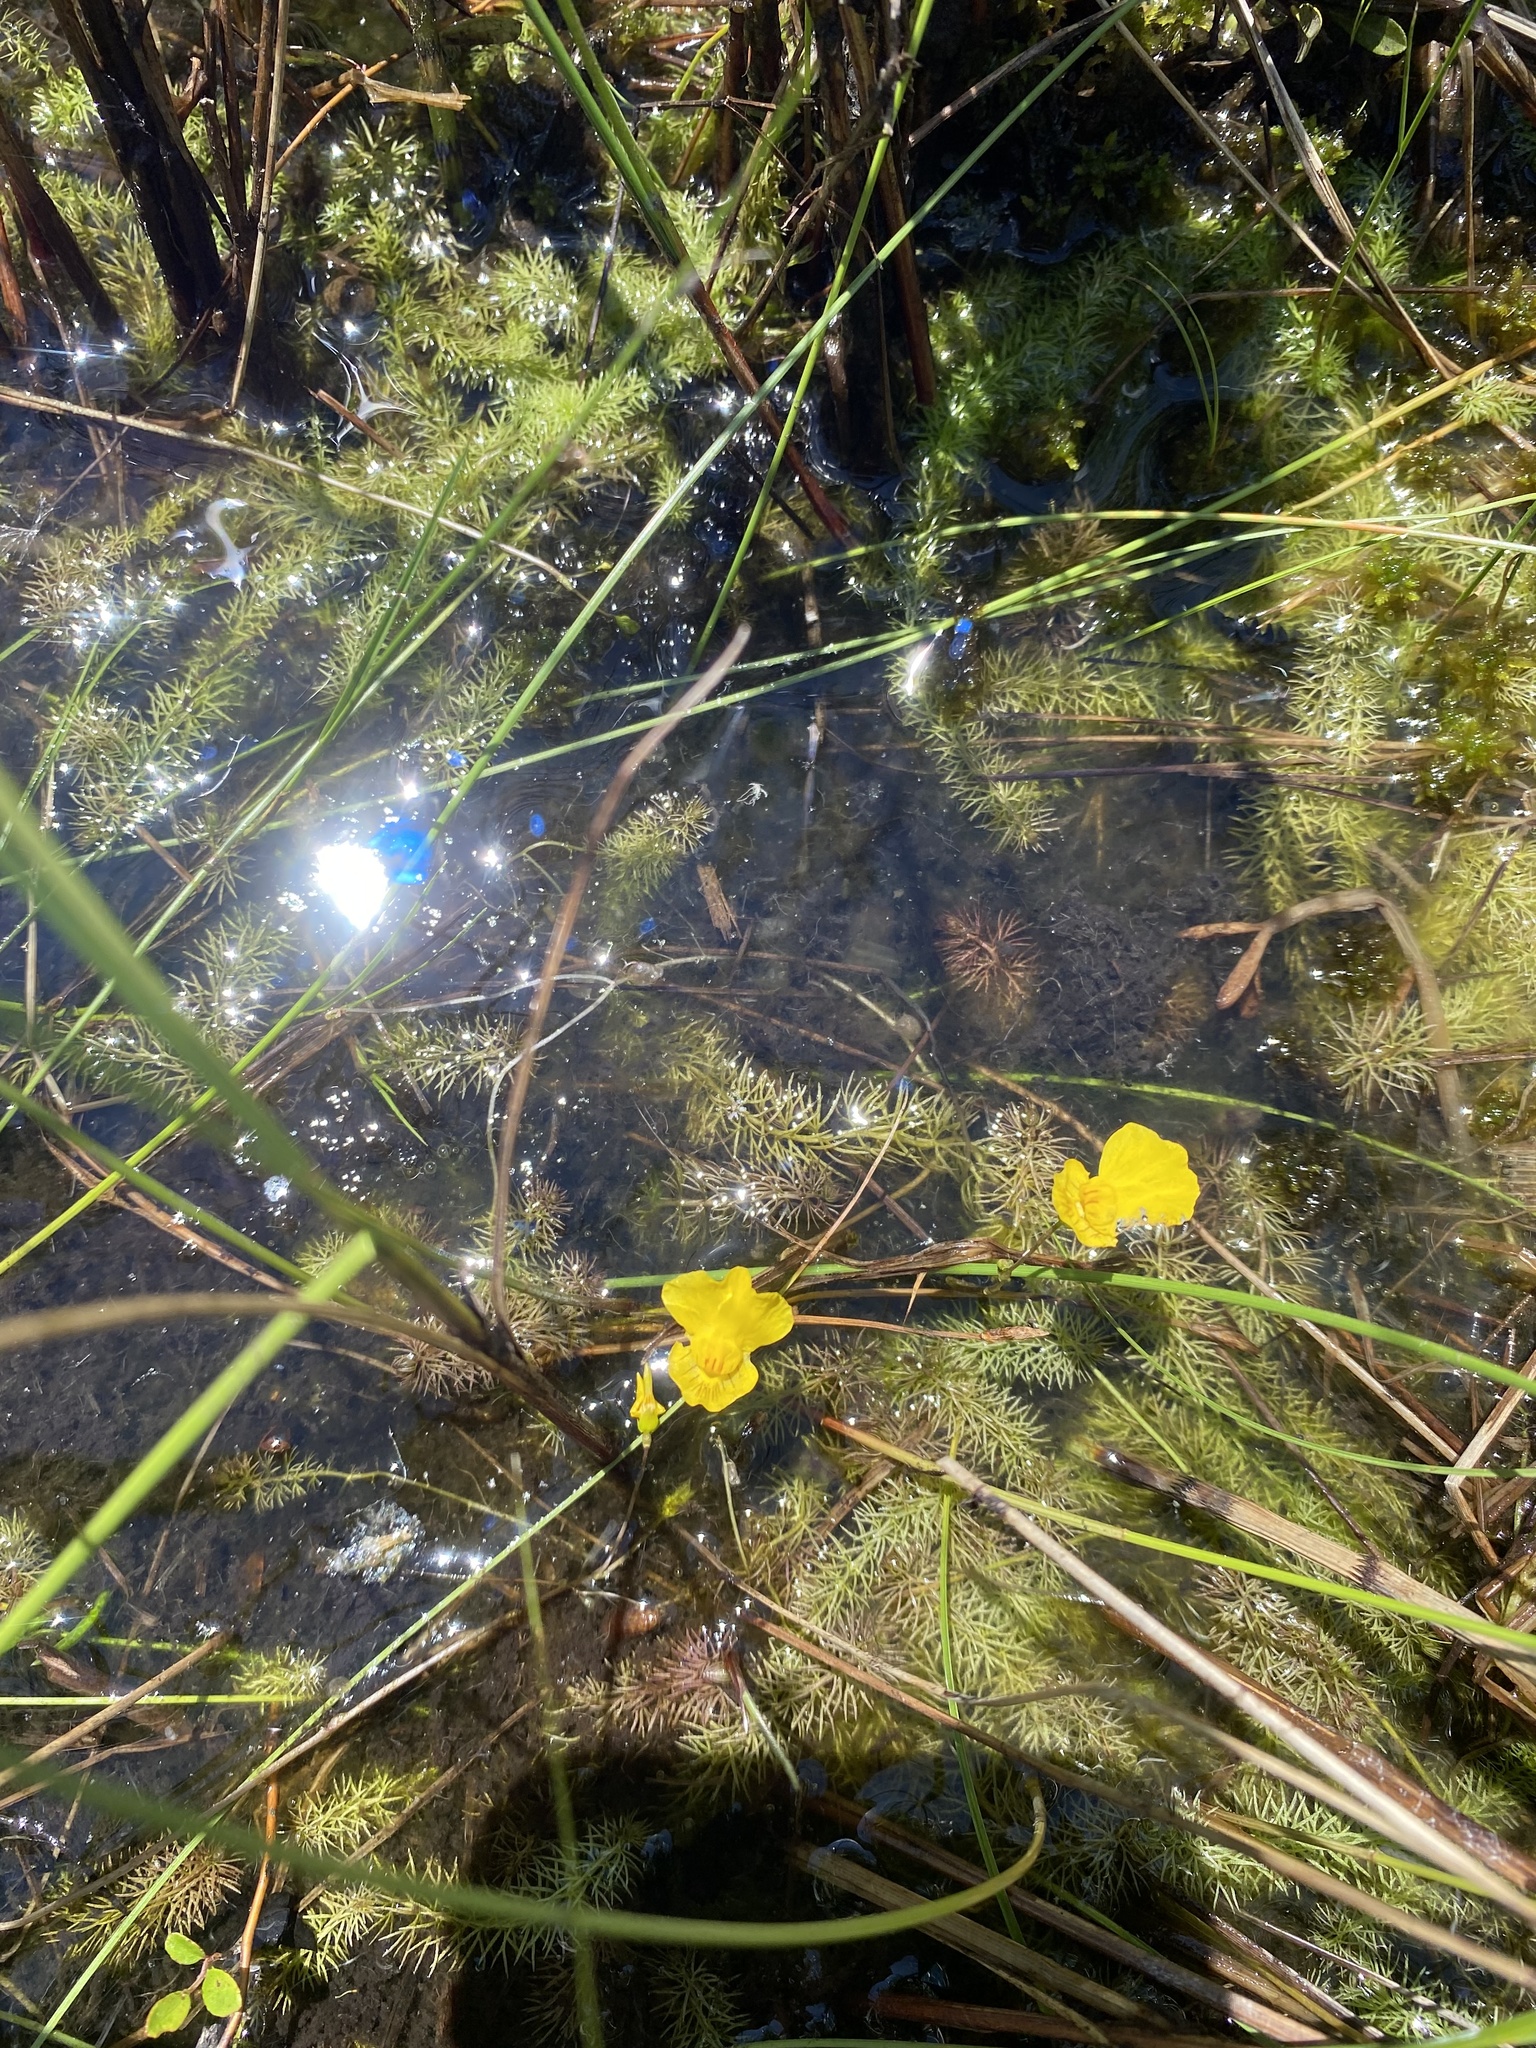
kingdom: Plantae
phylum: Tracheophyta
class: Magnoliopsida
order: Lamiales
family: Lentibulariaceae
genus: Utricularia
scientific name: Utricularia intermedia
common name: Intermediate bladderwort
